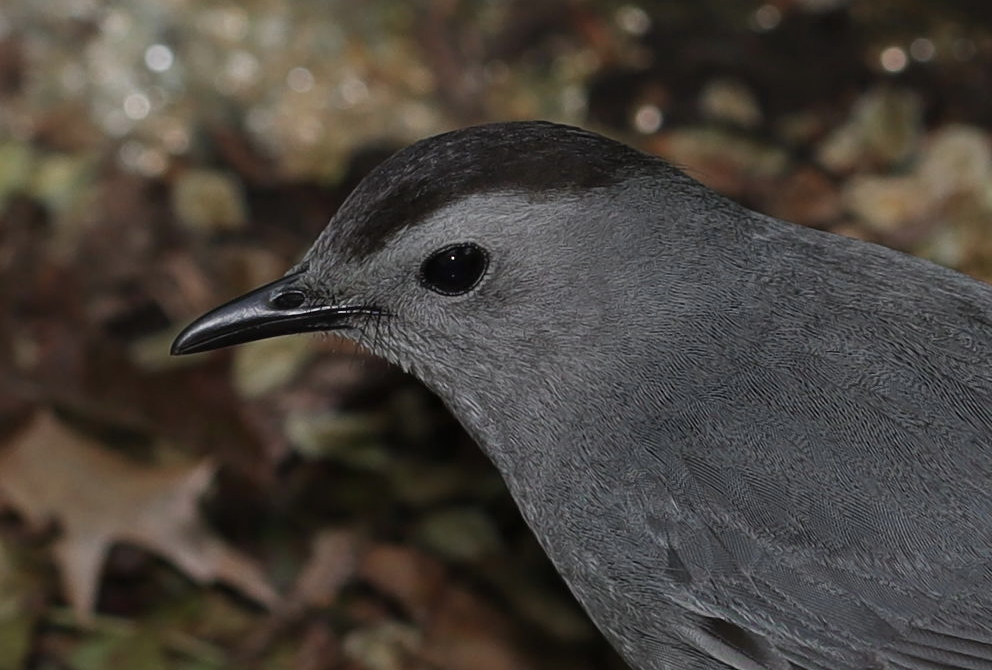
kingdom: Animalia
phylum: Chordata
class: Aves
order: Passeriformes
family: Mimidae
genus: Dumetella
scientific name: Dumetella carolinensis
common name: Gray catbird
